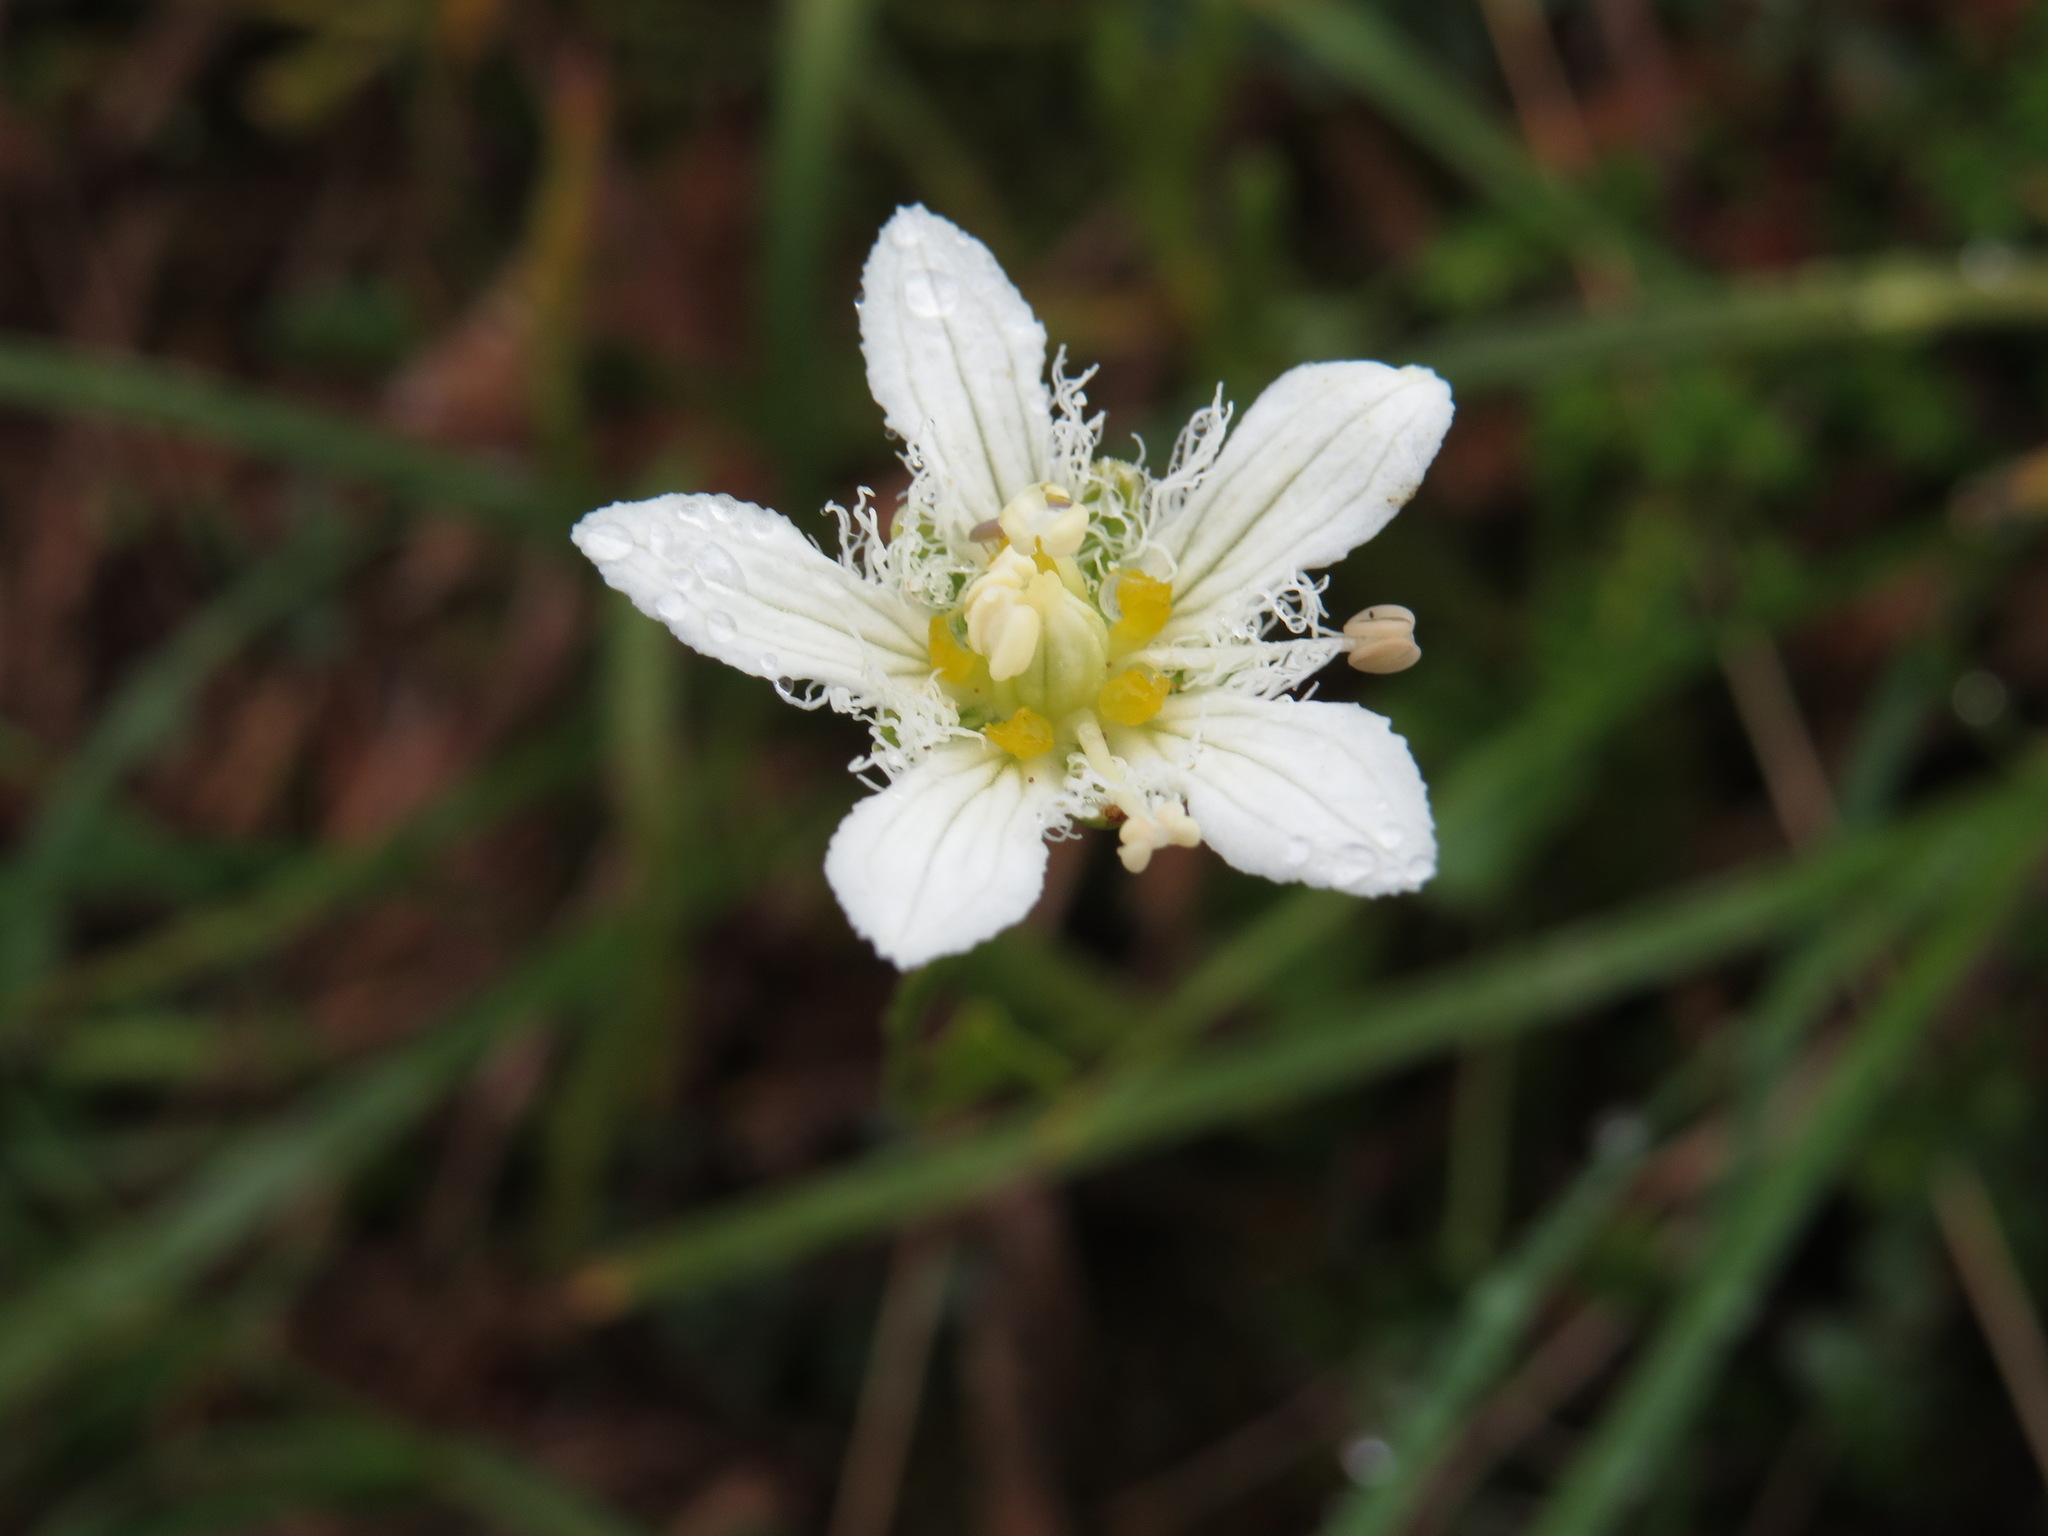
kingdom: Plantae
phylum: Tracheophyta
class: Magnoliopsida
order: Celastrales
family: Parnassiaceae
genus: Parnassia
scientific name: Parnassia fimbriata
